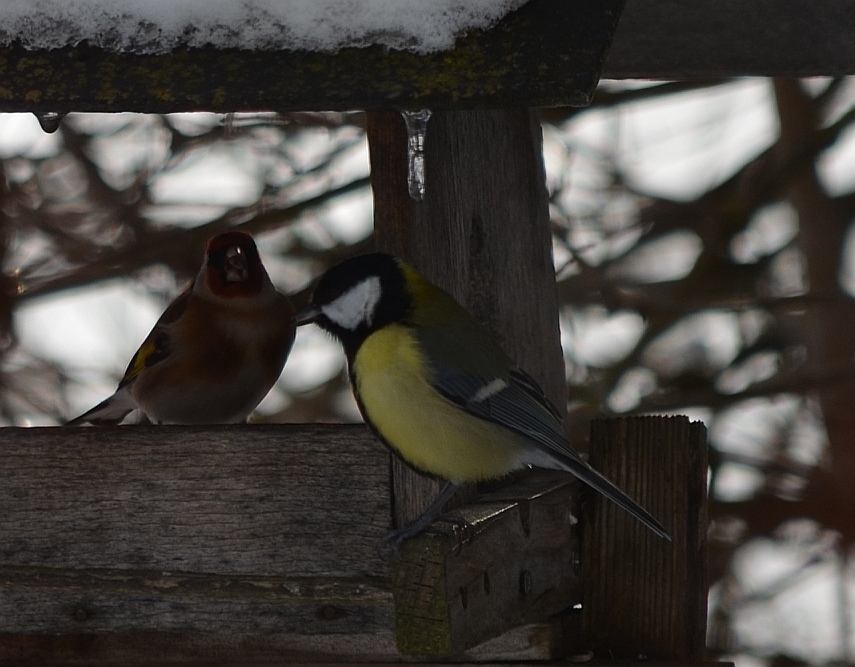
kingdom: Animalia
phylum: Chordata
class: Aves
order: Passeriformes
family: Fringillidae
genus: Carduelis
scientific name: Carduelis carduelis
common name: European goldfinch
